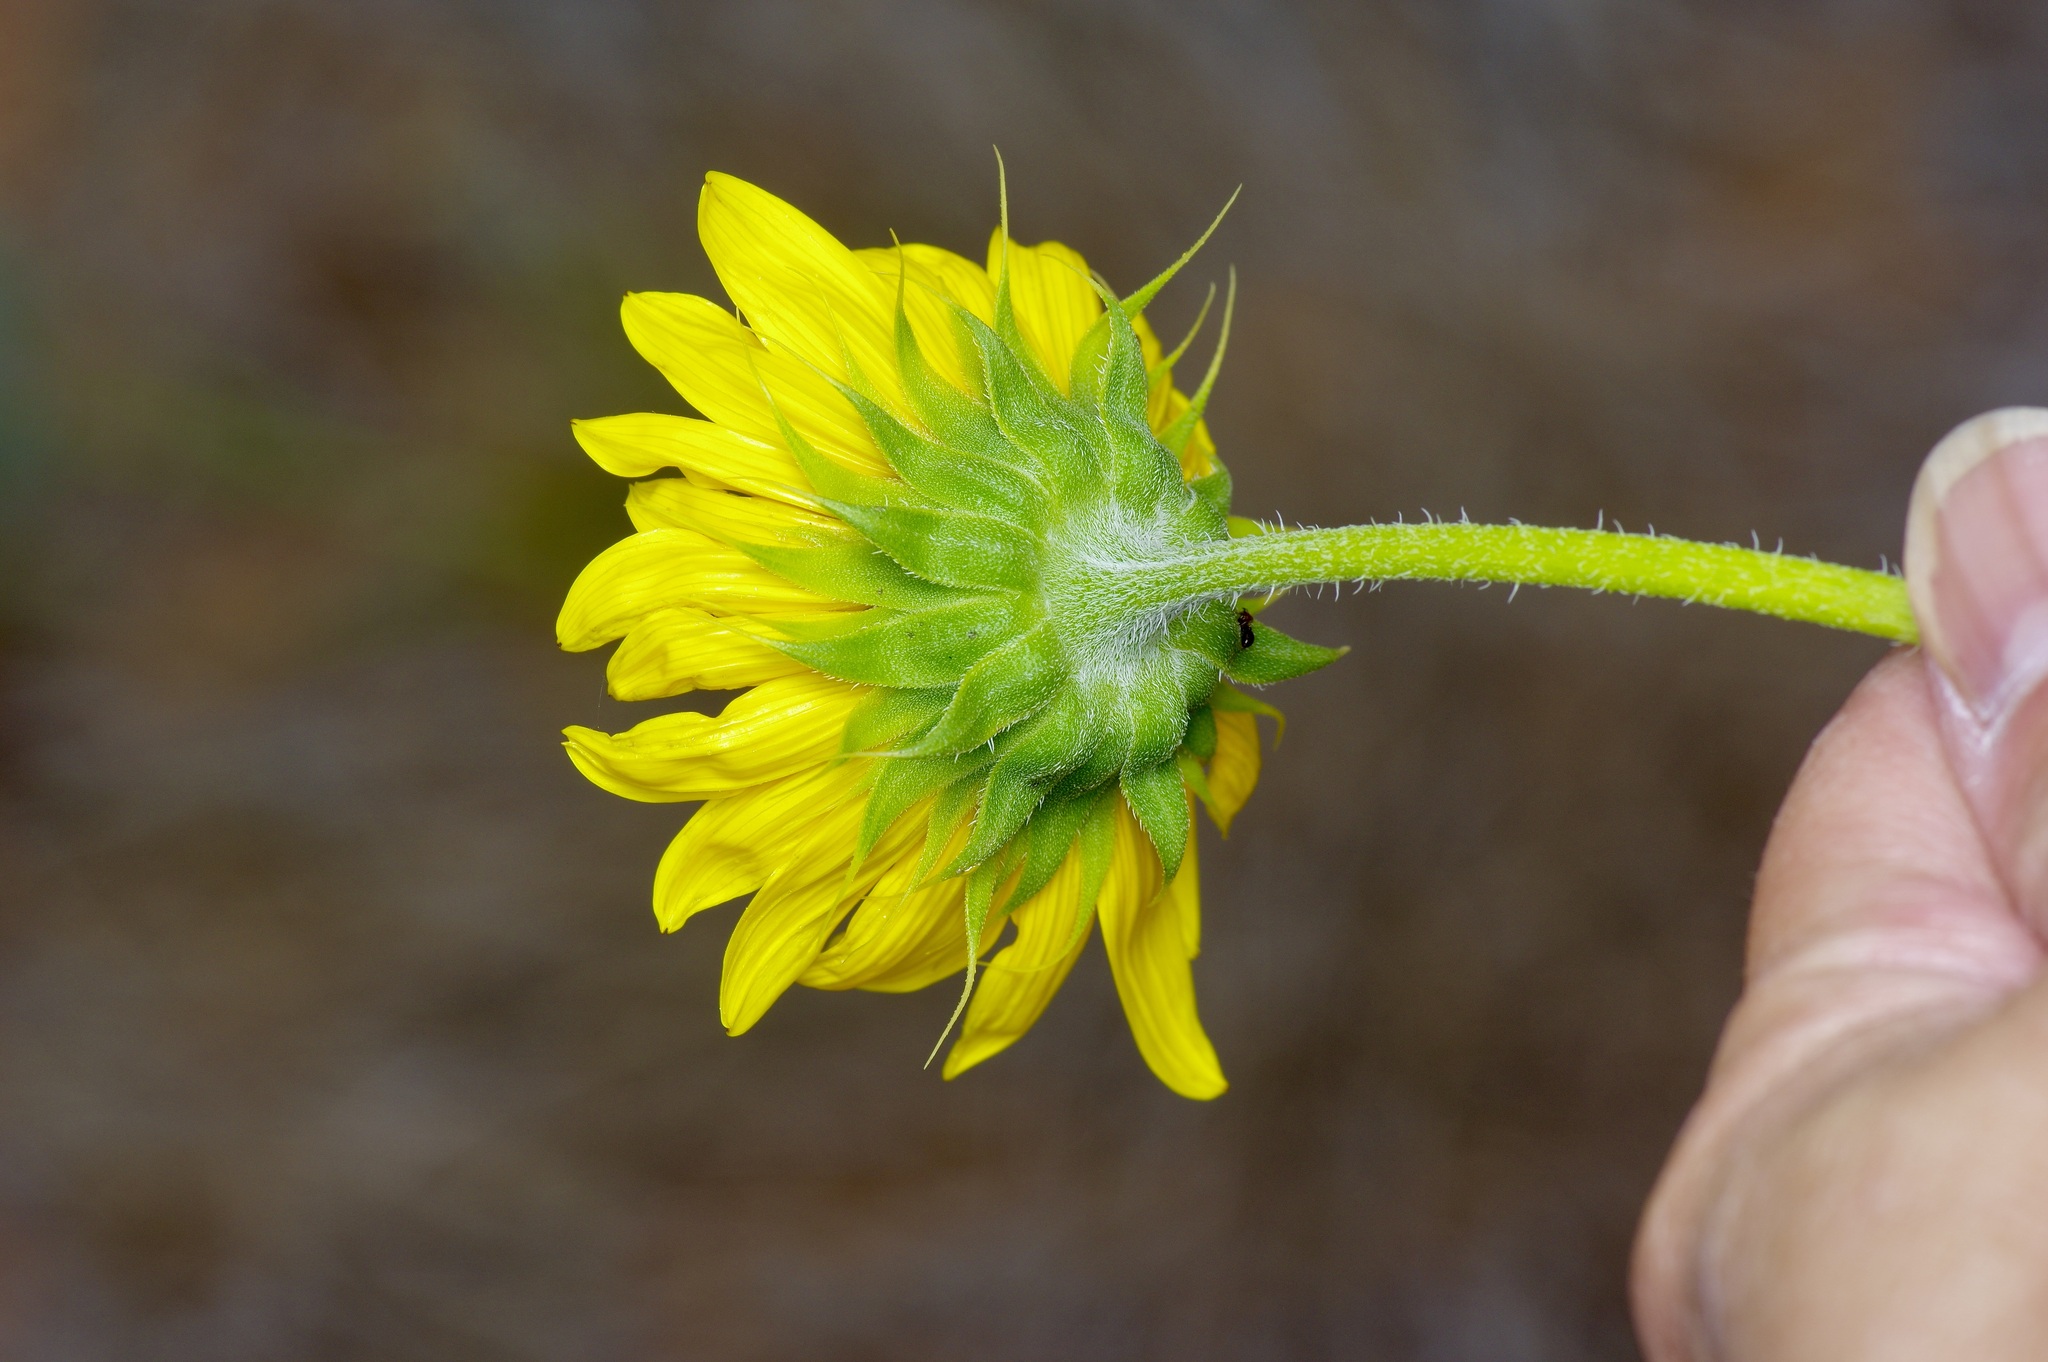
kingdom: Plantae
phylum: Tracheophyta
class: Magnoliopsida
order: Asterales
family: Asteraceae
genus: Helianthus
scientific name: Helianthus neglectus
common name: Neglected sunflower
